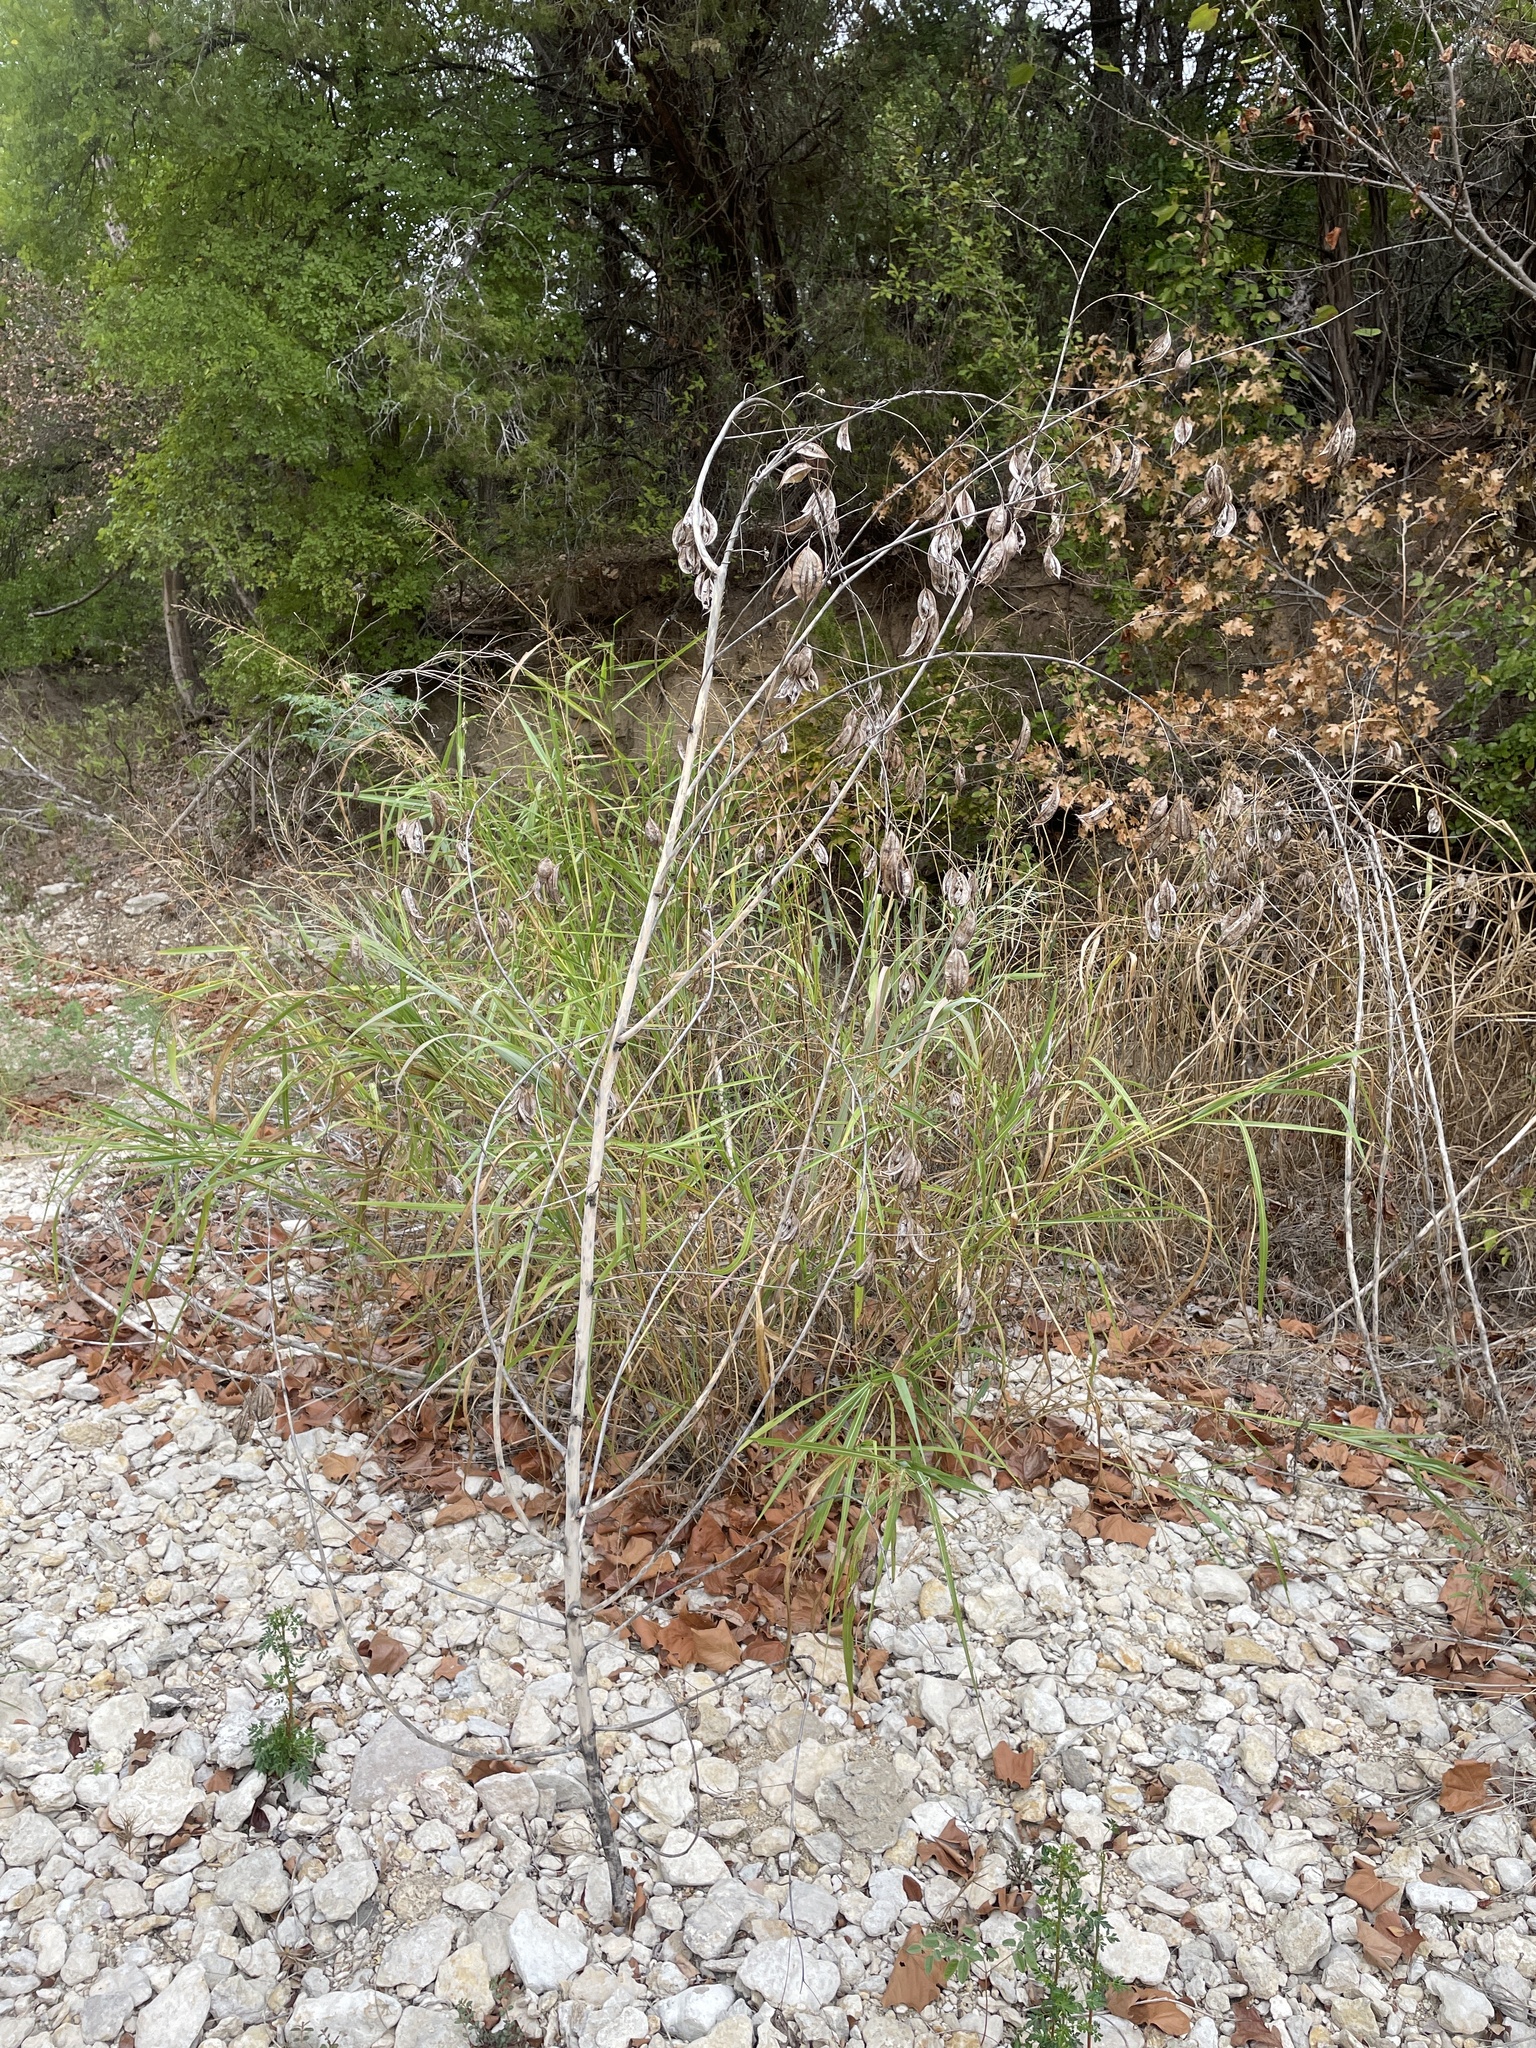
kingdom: Plantae
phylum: Tracheophyta
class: Magnoliopsida
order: Fabales
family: Fabaceae
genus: Sesbania
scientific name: Sesbania vesicaria
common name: Bagpod
